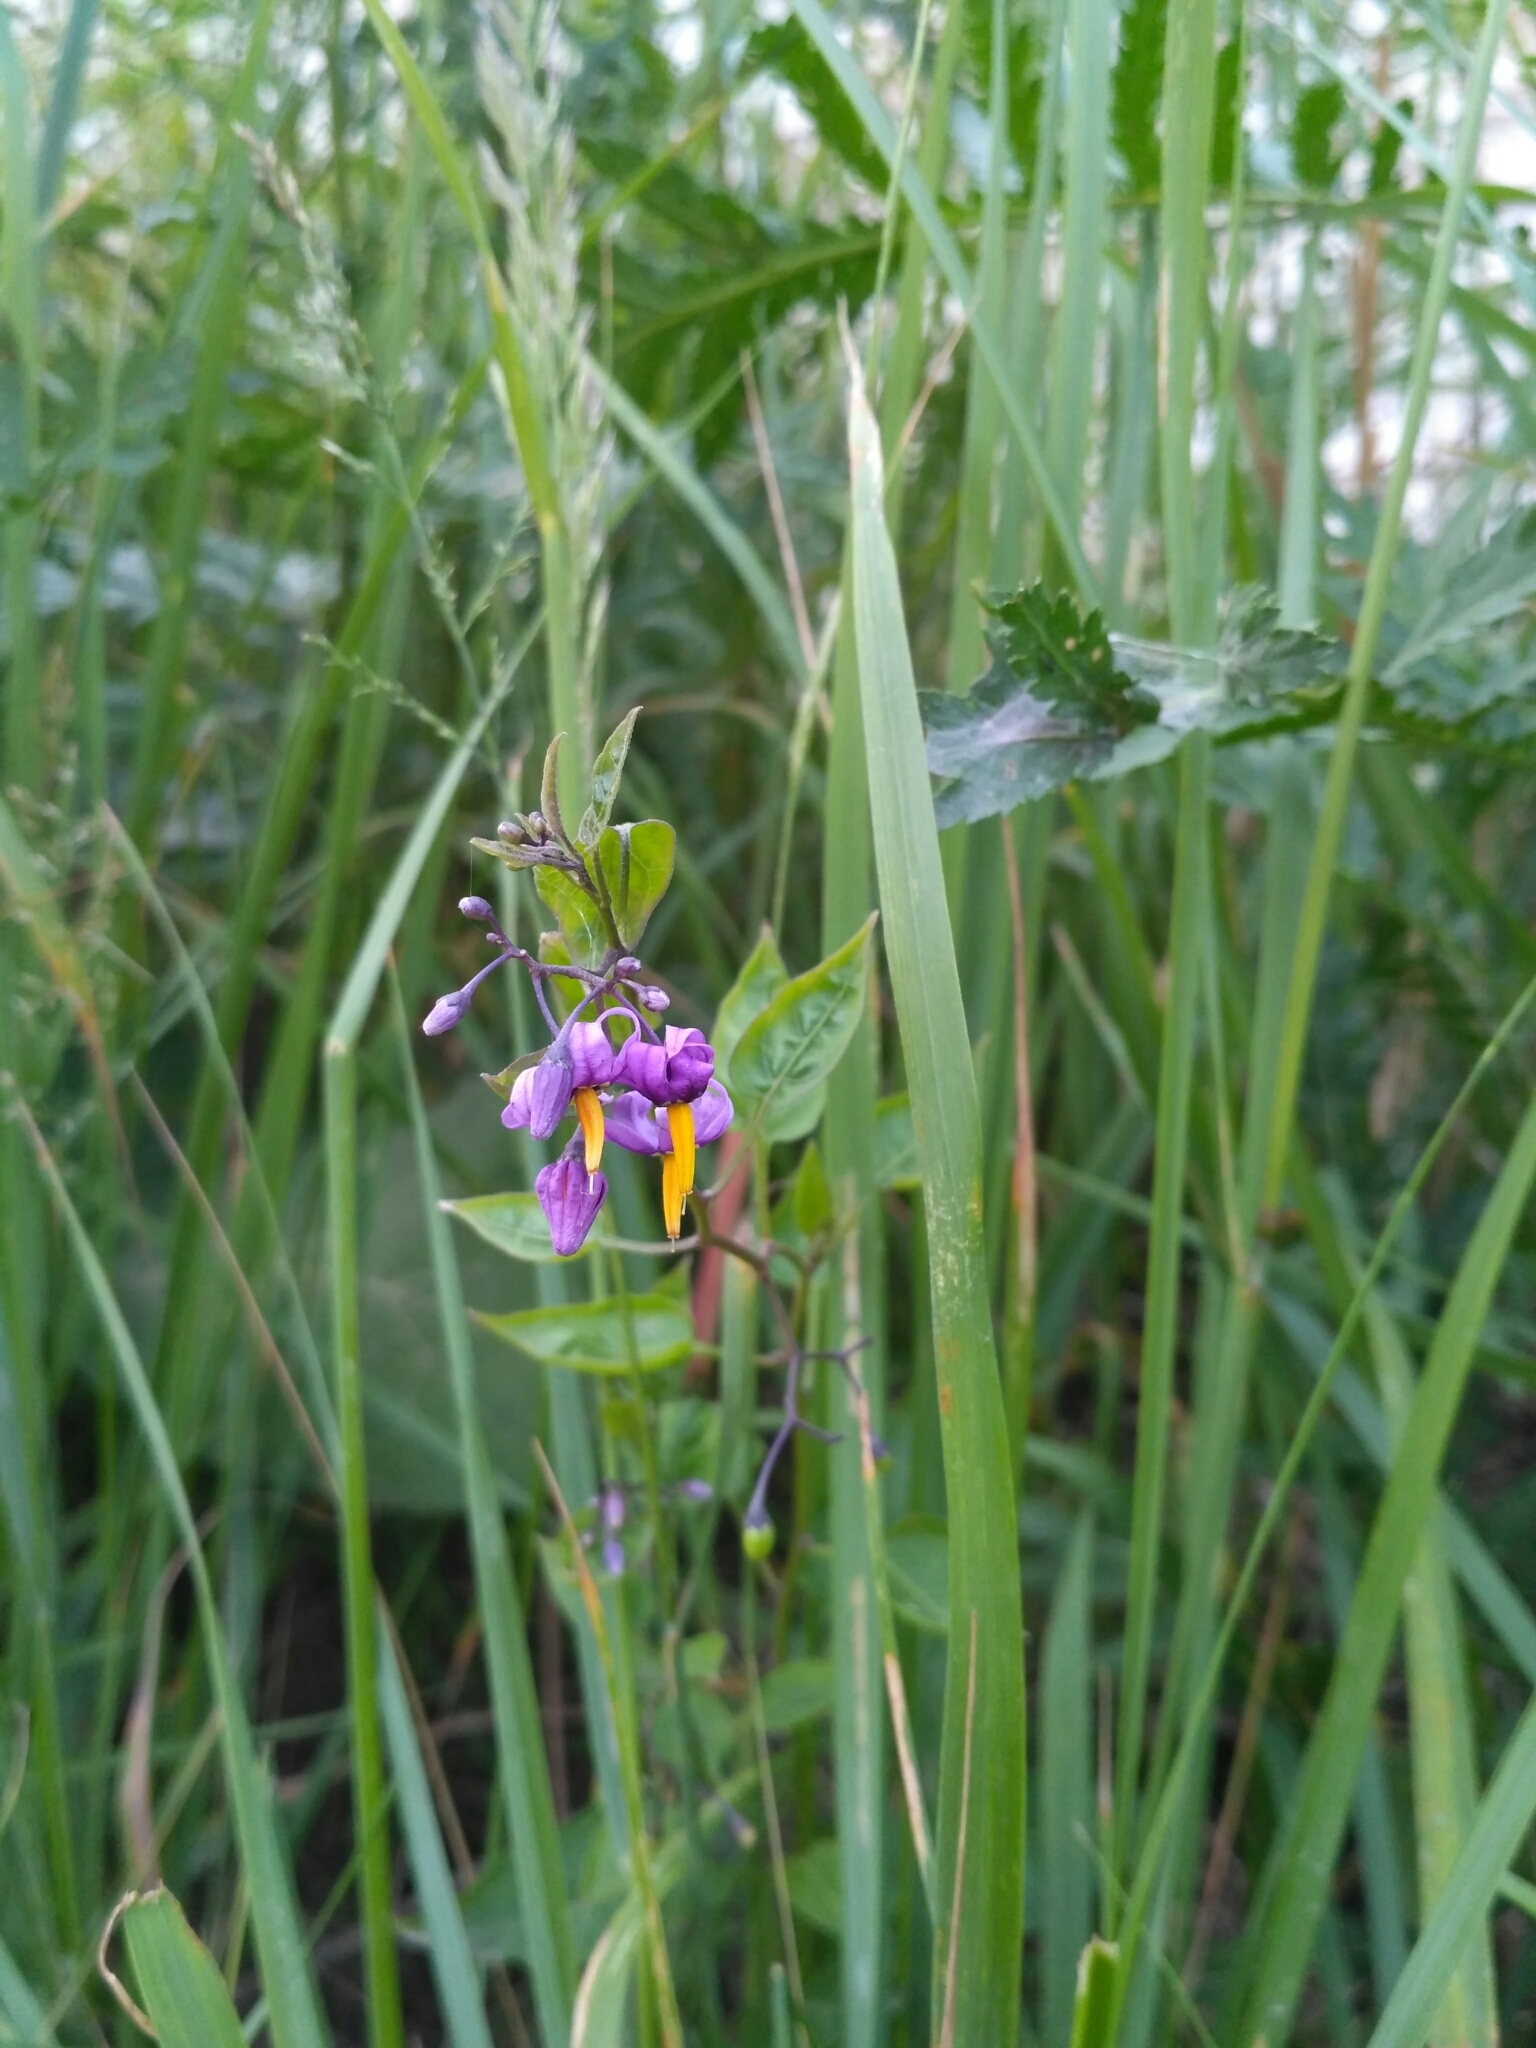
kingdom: Plantae
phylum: Tracheophyta
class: Magnoliopsida
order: Solanales
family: Solanaceae
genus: Solanum
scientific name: Solanum dulcamara
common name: Climbing nightshade
